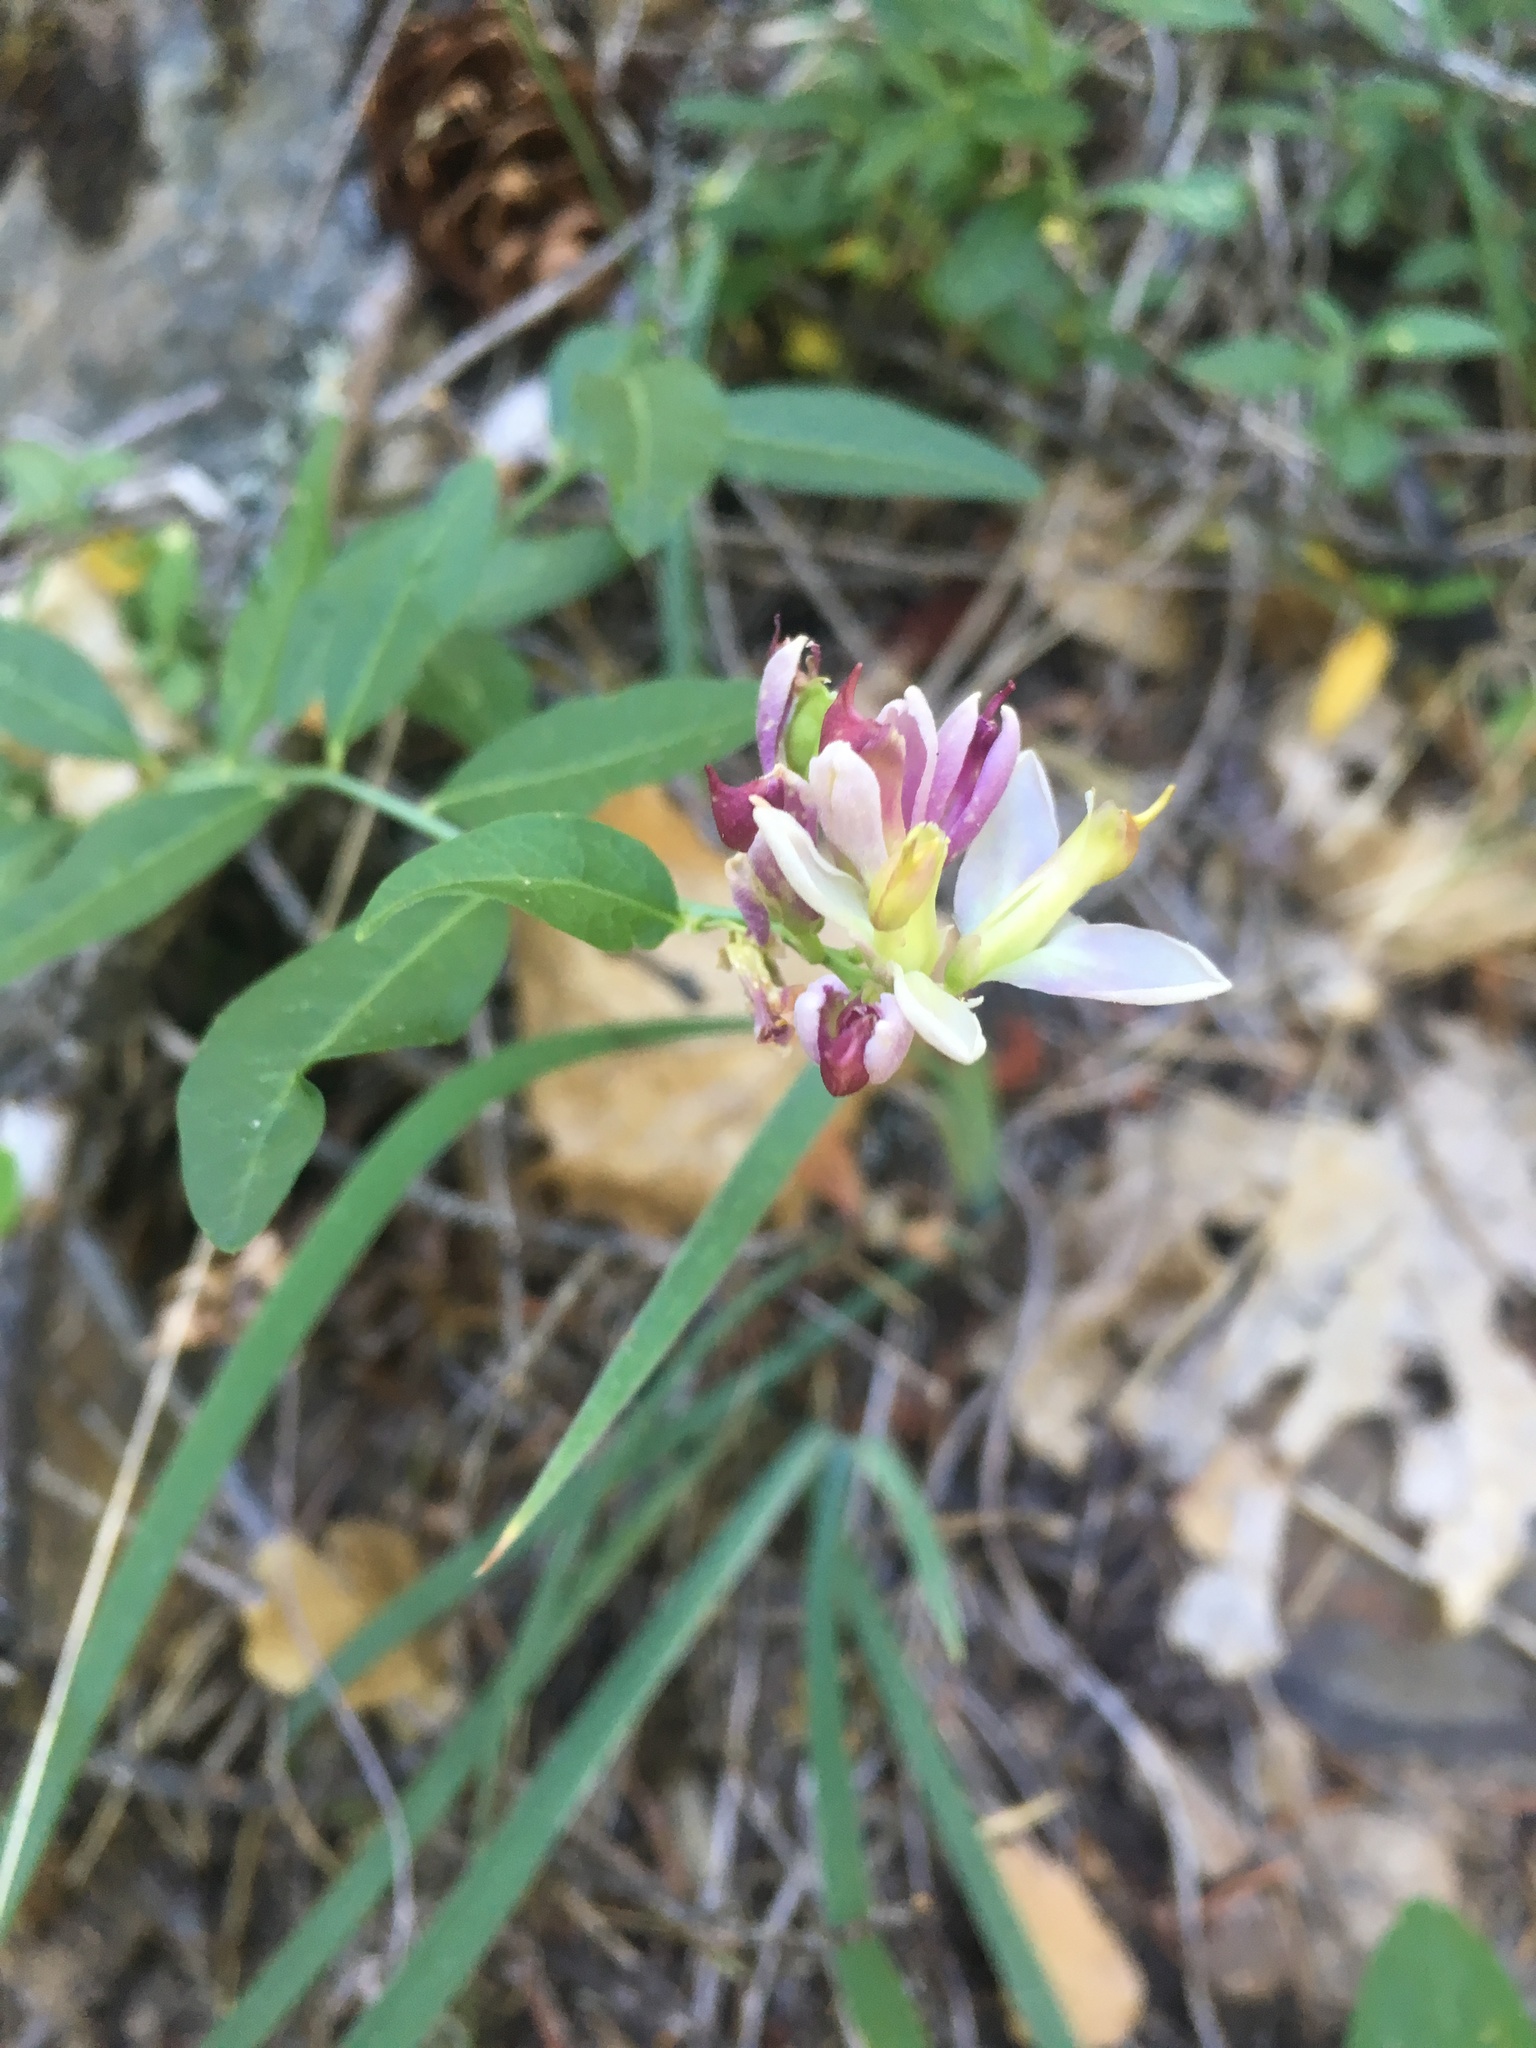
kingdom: Plantae
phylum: Tracheophyta
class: Magnoliopsida
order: Fabales
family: Polygalaceae
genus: Rhinotropis
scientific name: Rhinotropis cornuta
